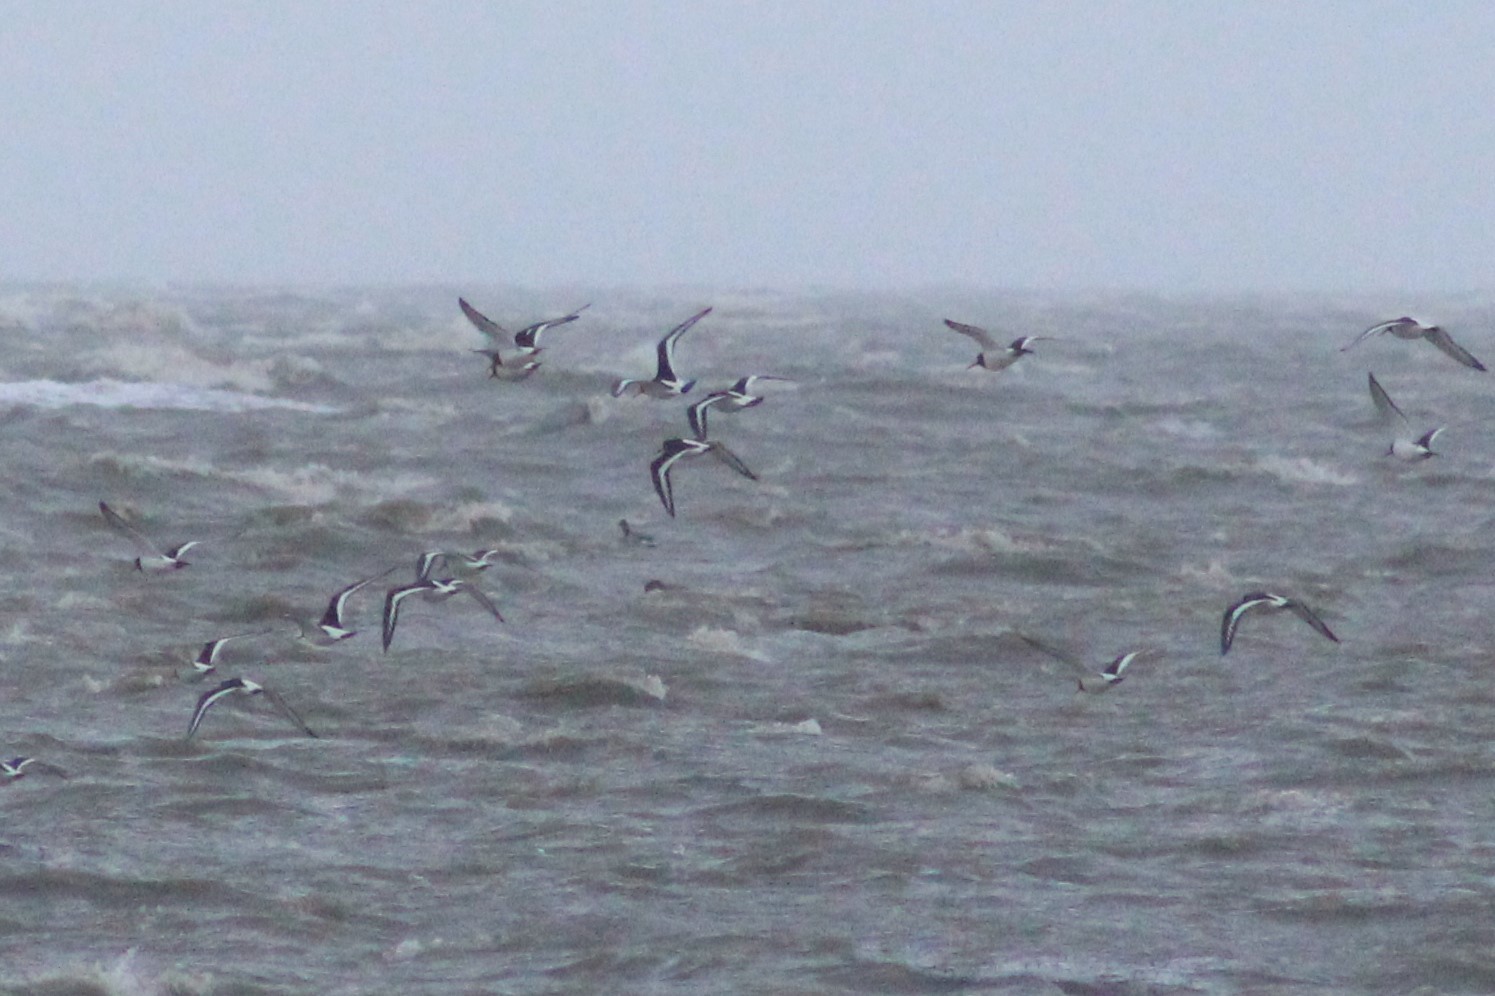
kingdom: Animalia
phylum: Chordata
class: Aves
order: Charadriiformes
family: Haematopodidae
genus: Haematopus
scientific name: Haematopus ostralegus
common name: Eurasian oystercatcher
